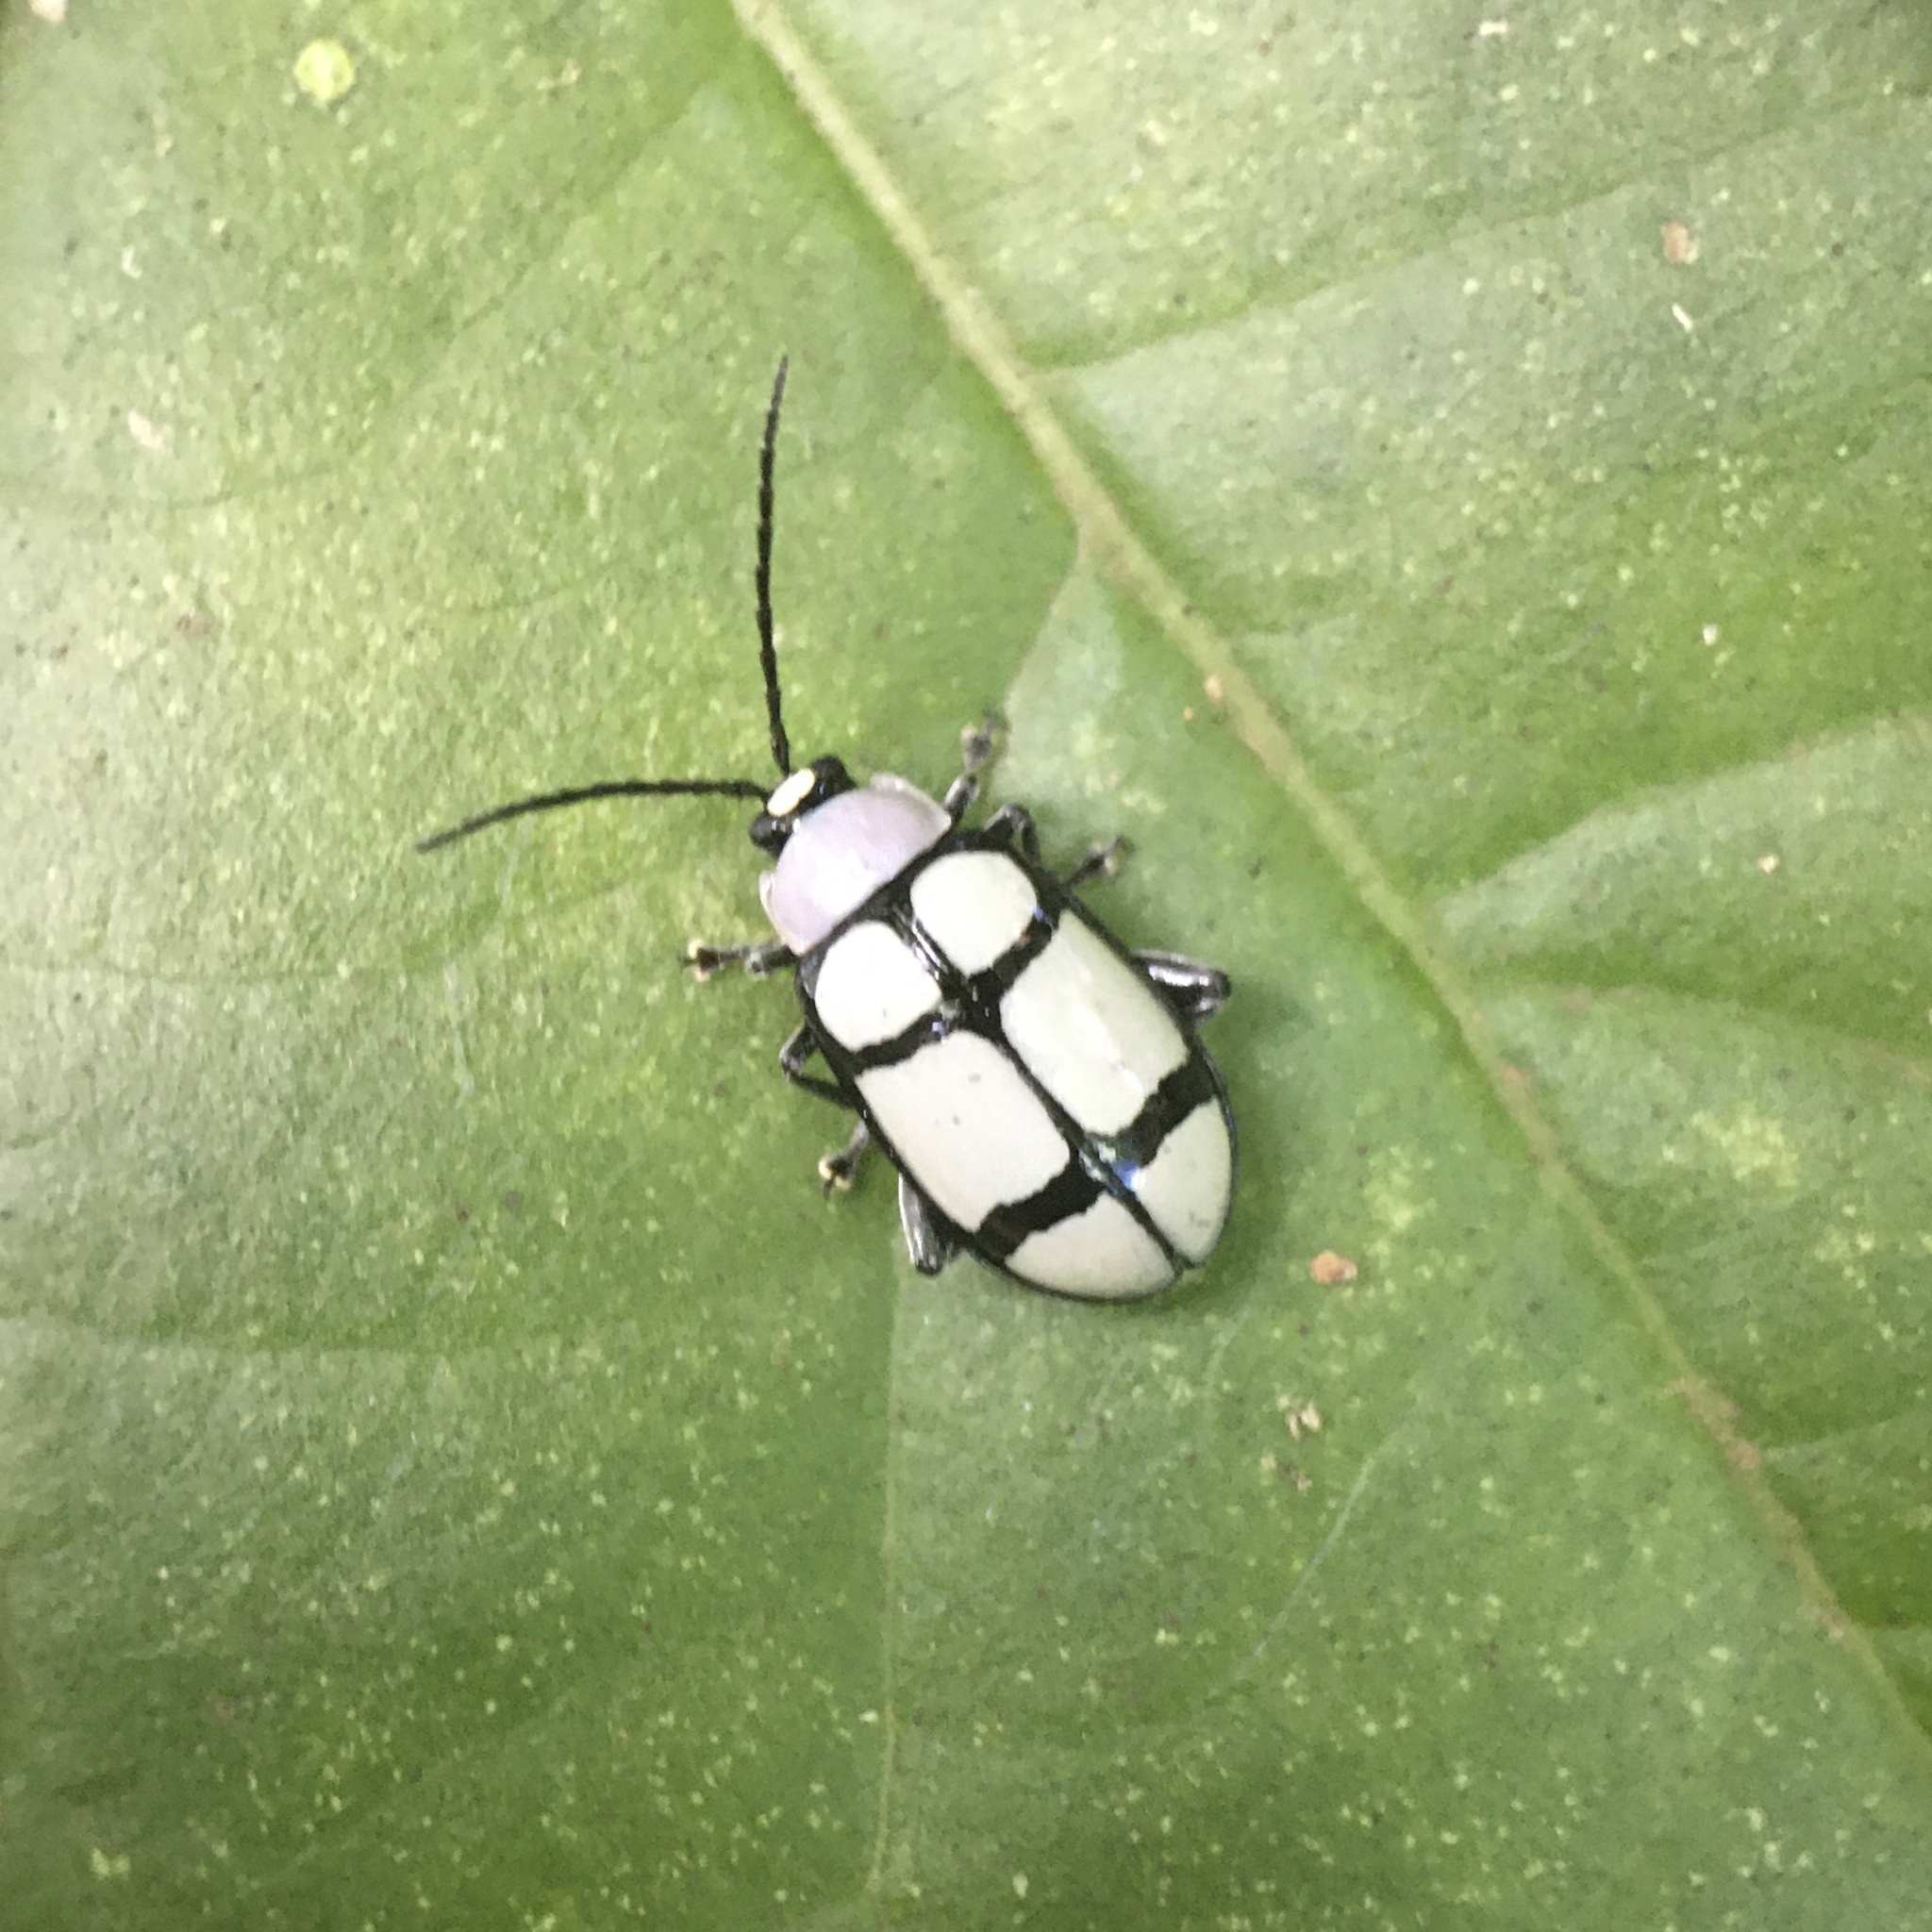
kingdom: Animalia
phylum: Arthropoda
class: Insecta
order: Coleoptera
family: Chrysomelidae
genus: Omophoita
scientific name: Omophoita
